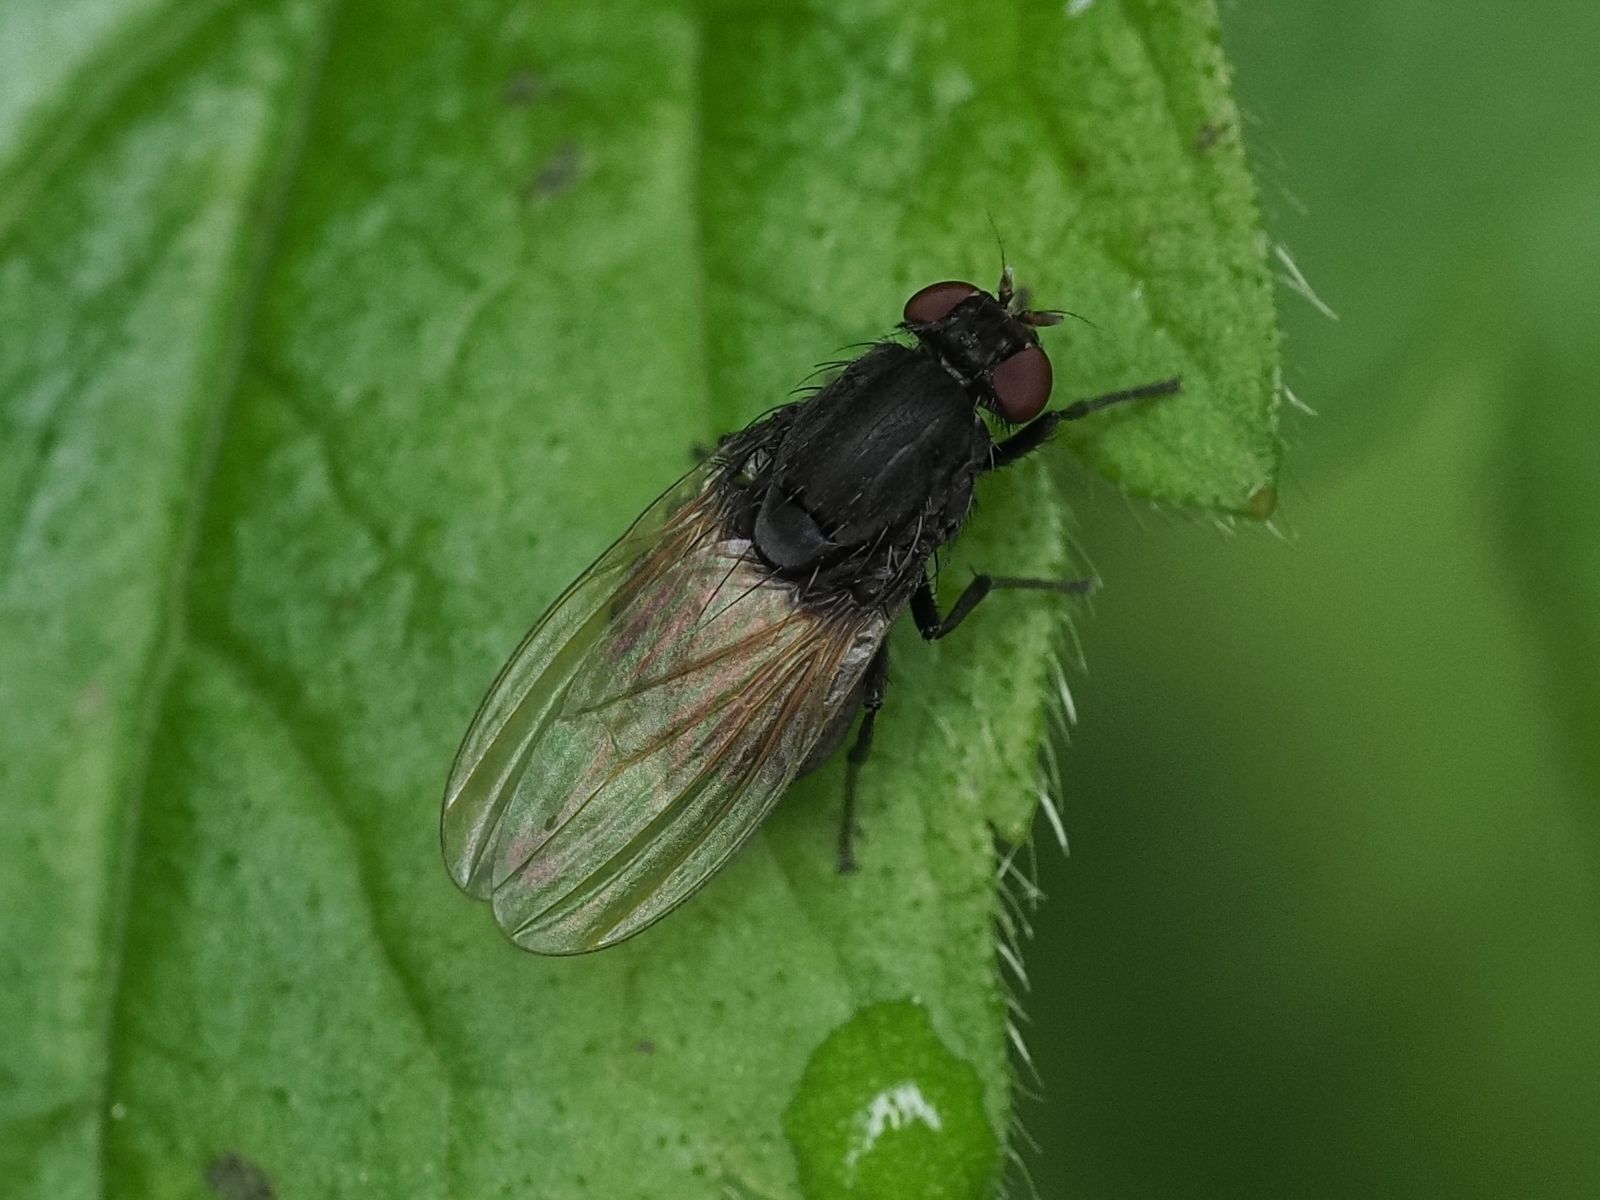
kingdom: Animalia
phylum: Arthropoda
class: Insecta
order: Diptera
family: Lauxaniidae
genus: Minettia
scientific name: Minettia longipennis
